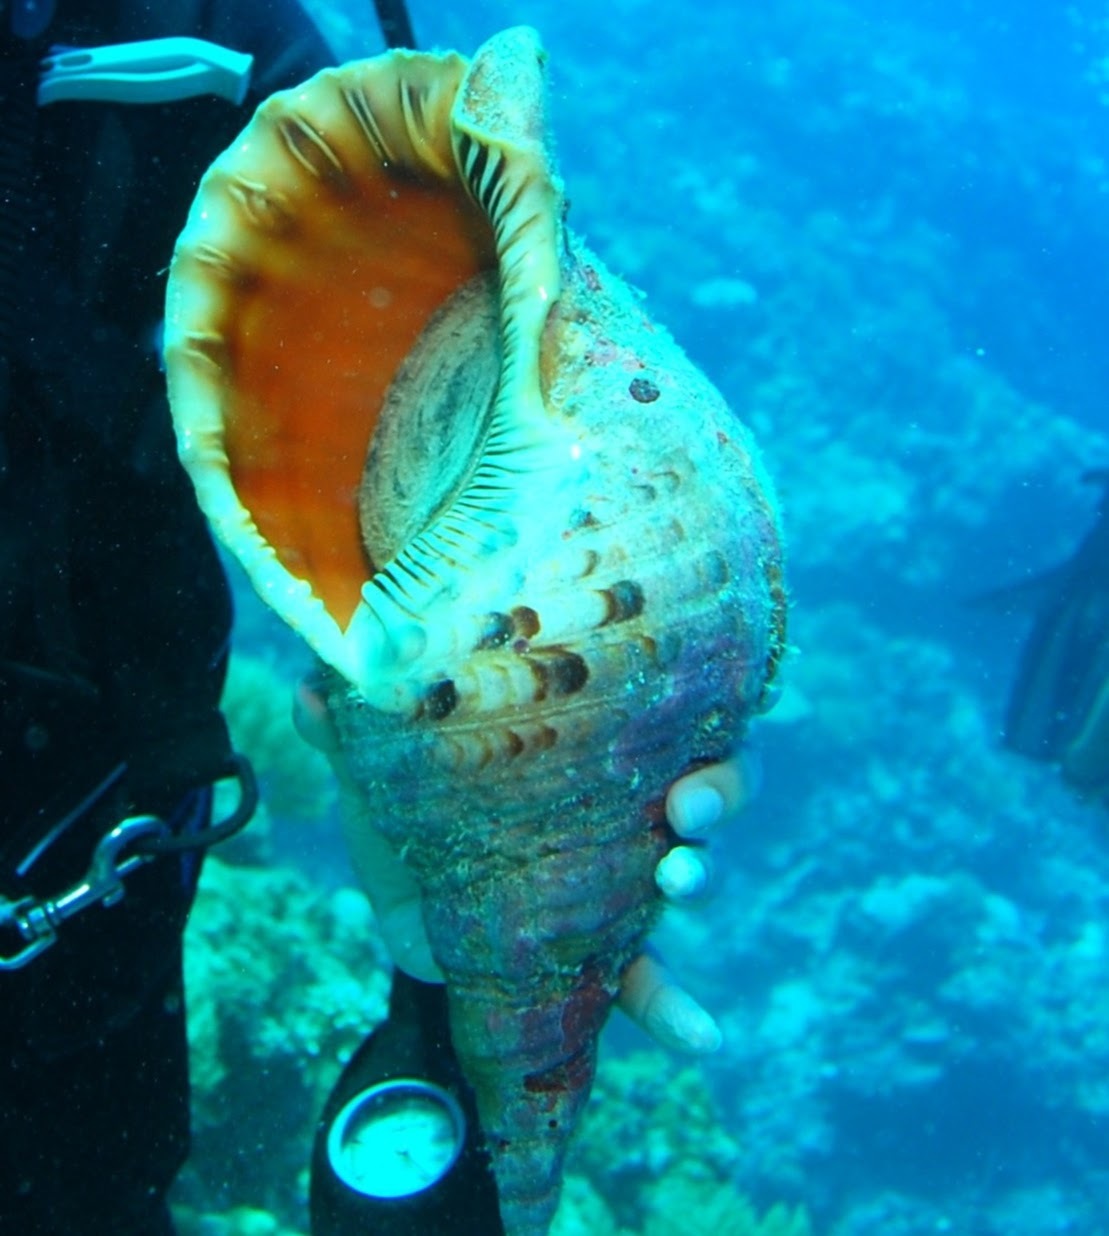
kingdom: Animalia
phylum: Mollusca
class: Gastropoda
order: Littorinimorpha
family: Charoniidae
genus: Charonia
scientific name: Charonia tritonis
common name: Pacific triton
